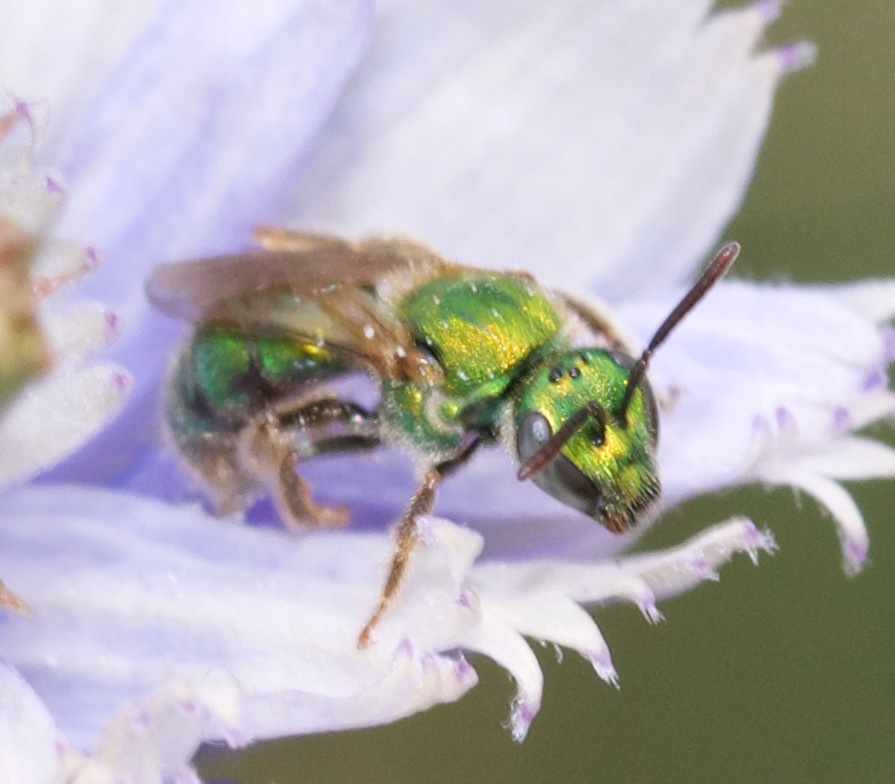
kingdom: Animalia
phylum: Arthropoda
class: Insecta
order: Hymenoptera
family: Halictidae
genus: Augochlorella
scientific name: Augochlorella aurata
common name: Golden sweat bee
